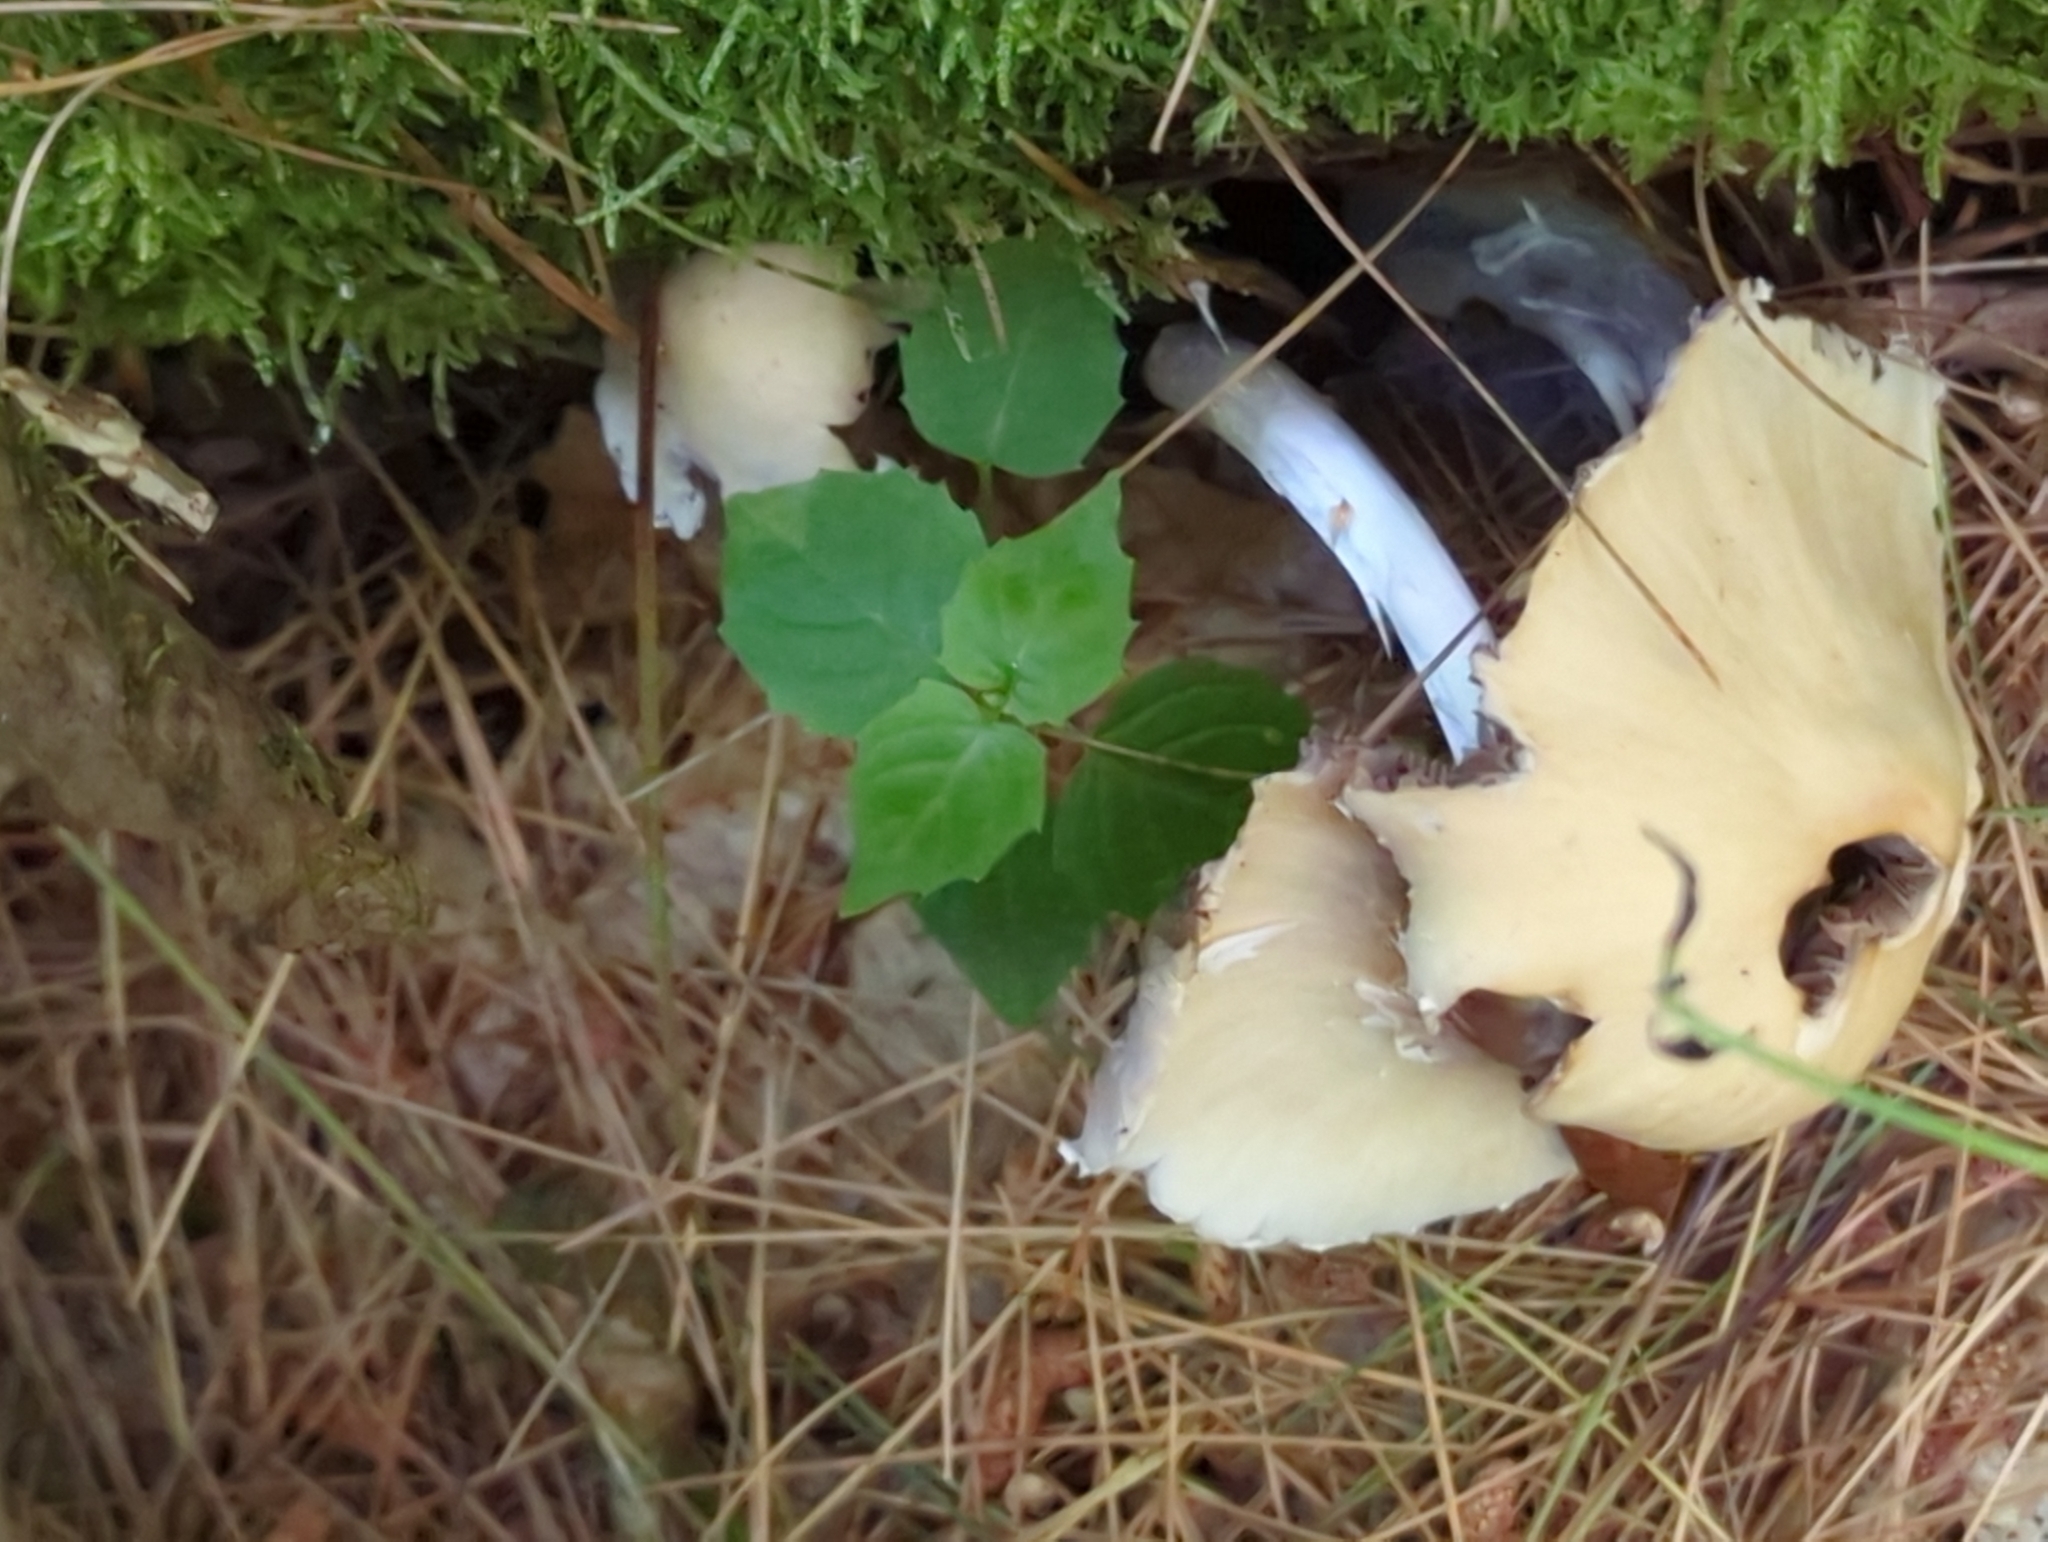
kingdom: Fungi
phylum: Basidiomycota
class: Agaricomycetes
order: Agaricales
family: Psathyrellaceae
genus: Candolleomyces
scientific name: Candolleomyces candolleanus
